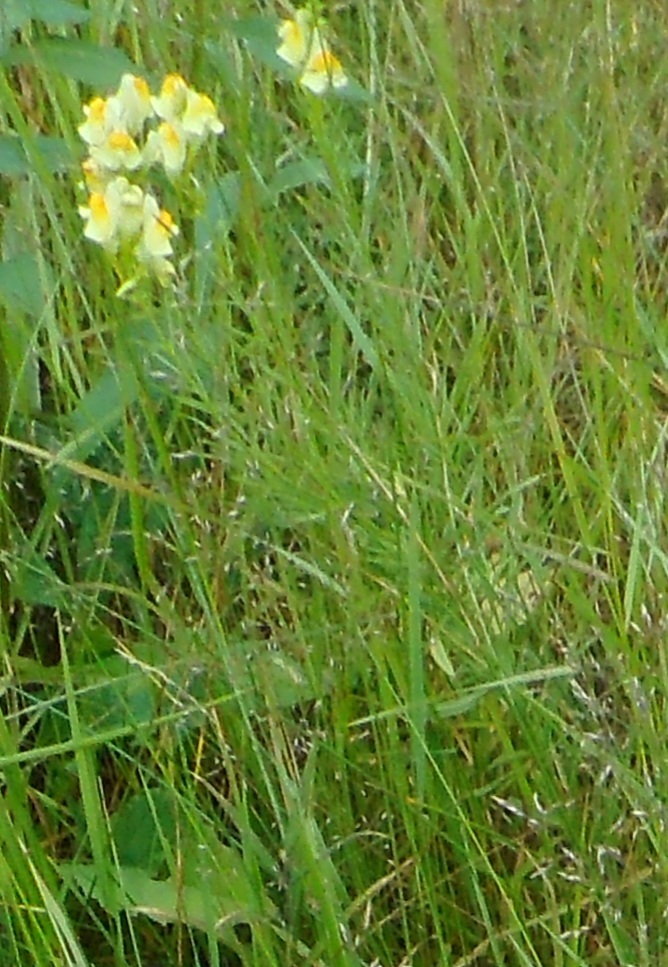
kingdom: Plantae
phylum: Tracheophyta
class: Magnoliopsida
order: Lamiales
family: Plantaginaceae
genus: Linaria
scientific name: Linaria vulgaris
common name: Butter and eggs
